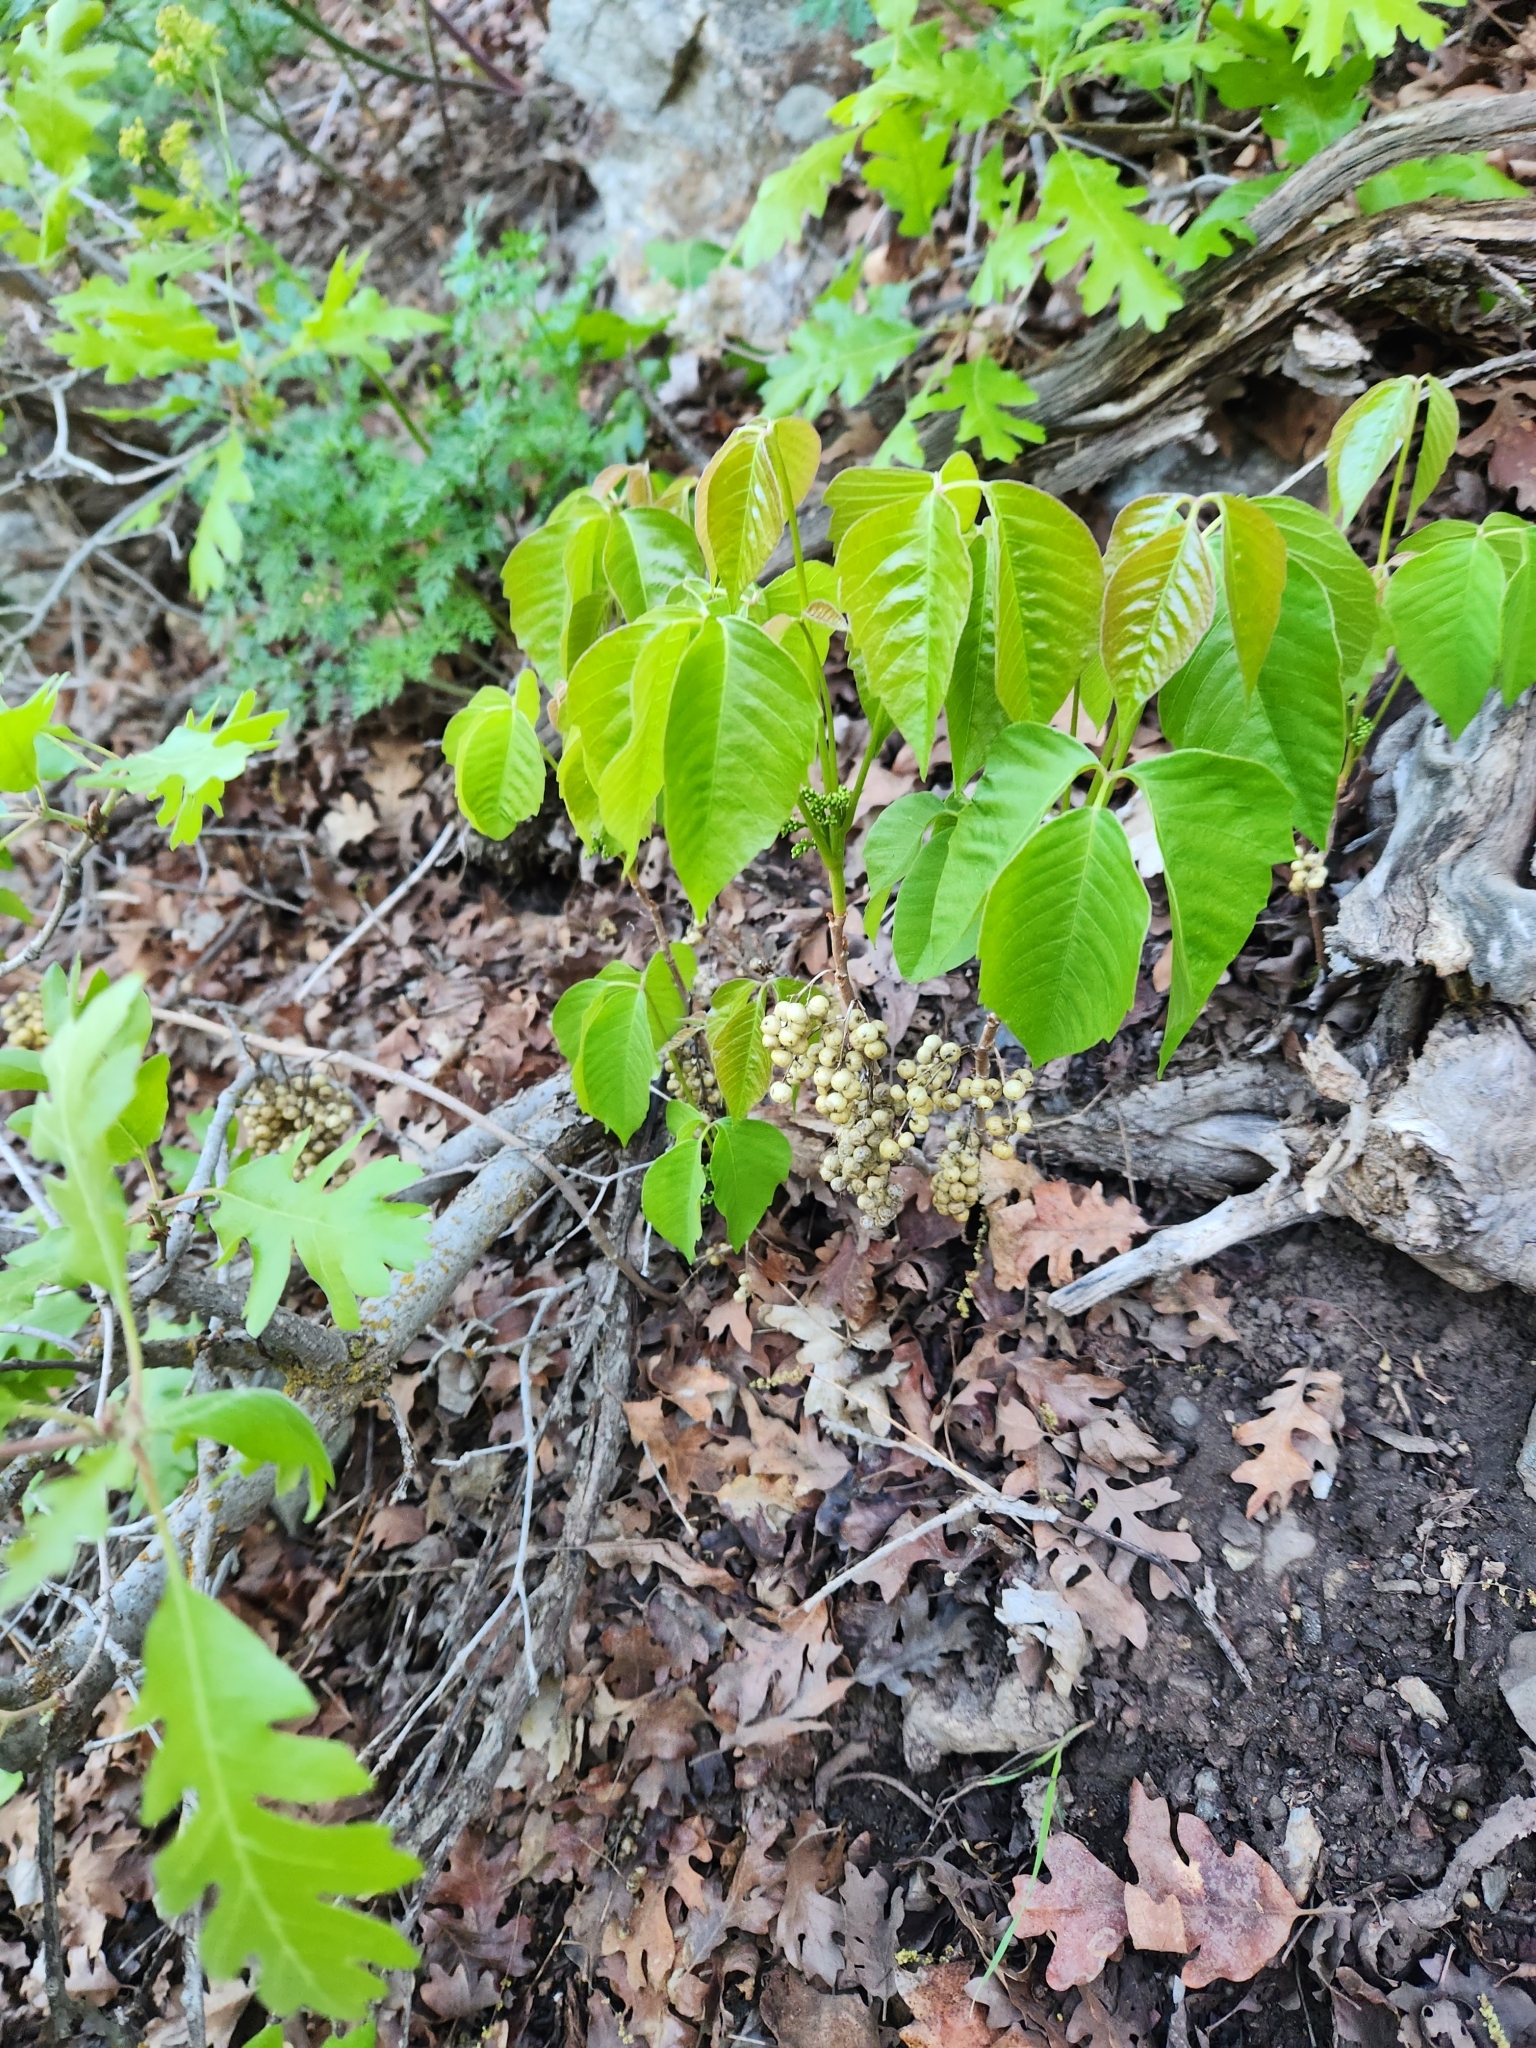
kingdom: Plantae
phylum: Tracheophyta
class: Magnoliopsida
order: Sapindales
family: Anacardiaceae
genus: Toxicodendron
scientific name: Toxicodendron rydbergii
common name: Rydberg's poison-ivy
